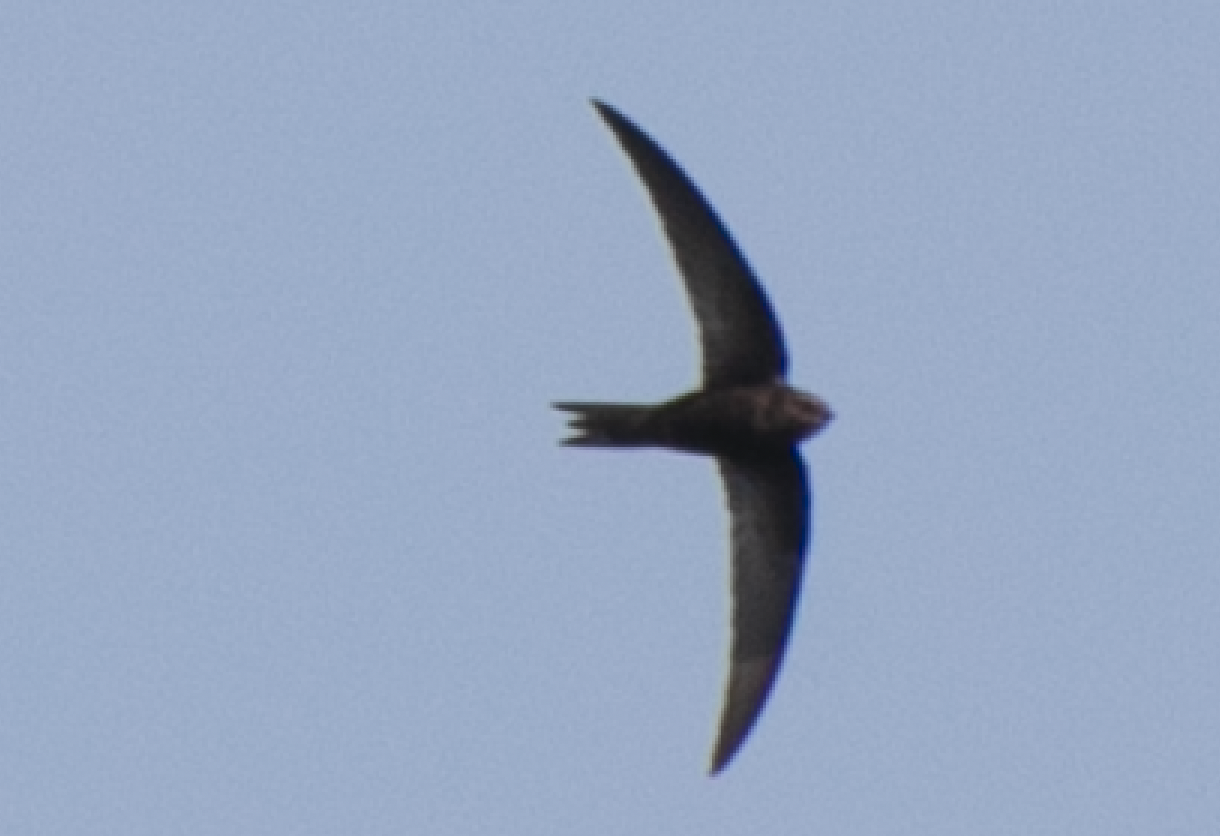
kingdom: Animalia
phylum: Chordata
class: Aves
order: Apodiformes
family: Apodidae
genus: Apus
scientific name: Apus apus
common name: Common swift
